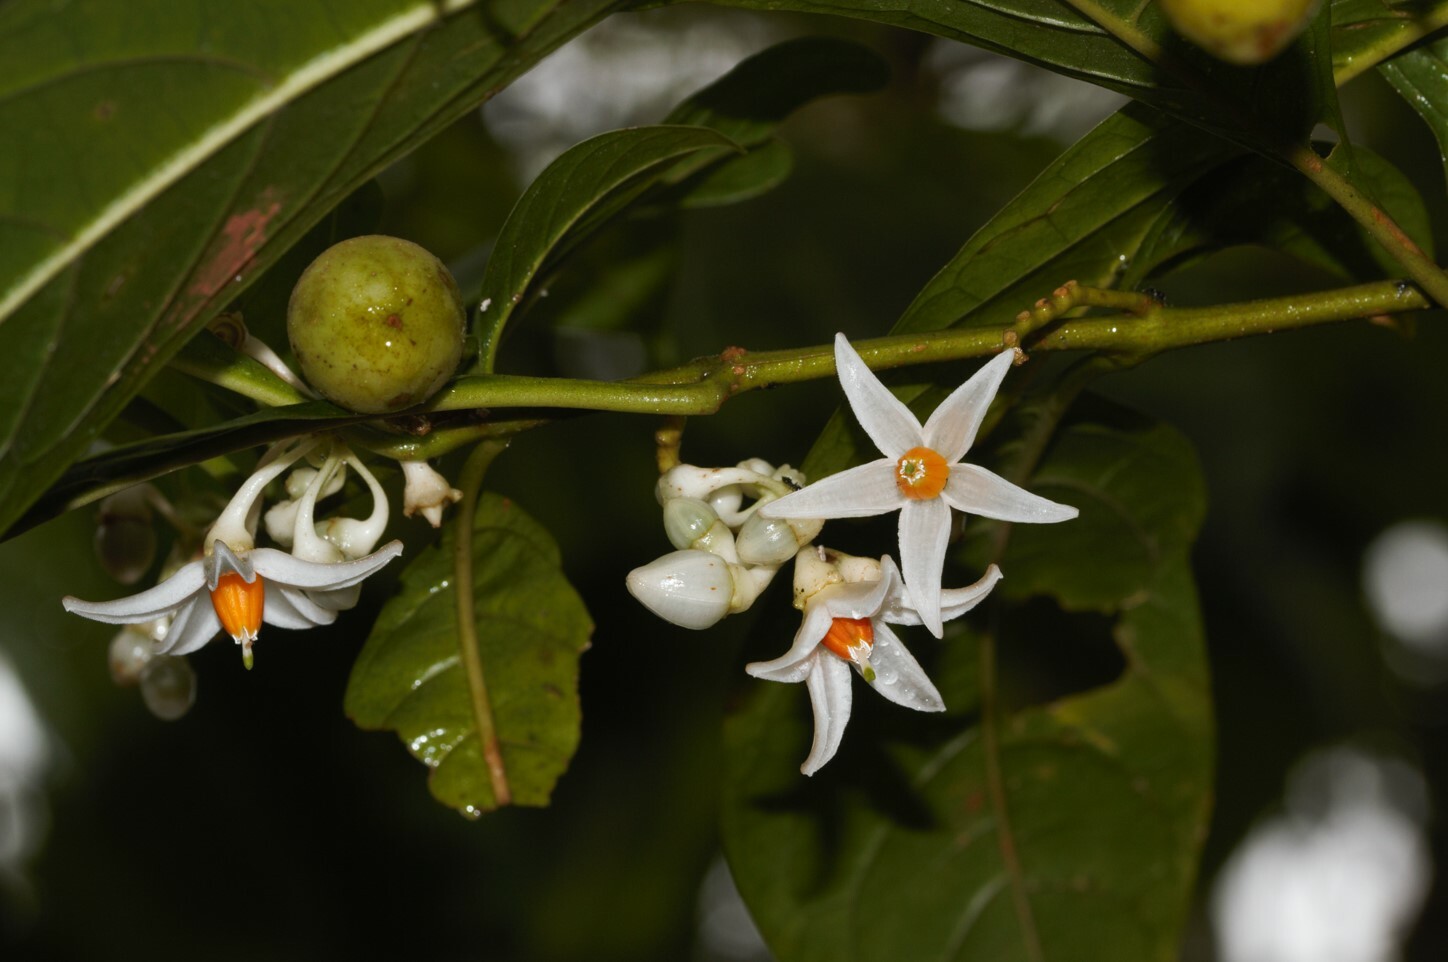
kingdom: Plantae
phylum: Tracheophyta
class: Magnoliopsida
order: Solanales
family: Solanaceae
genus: Solanum
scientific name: Solanum leucocarpon
